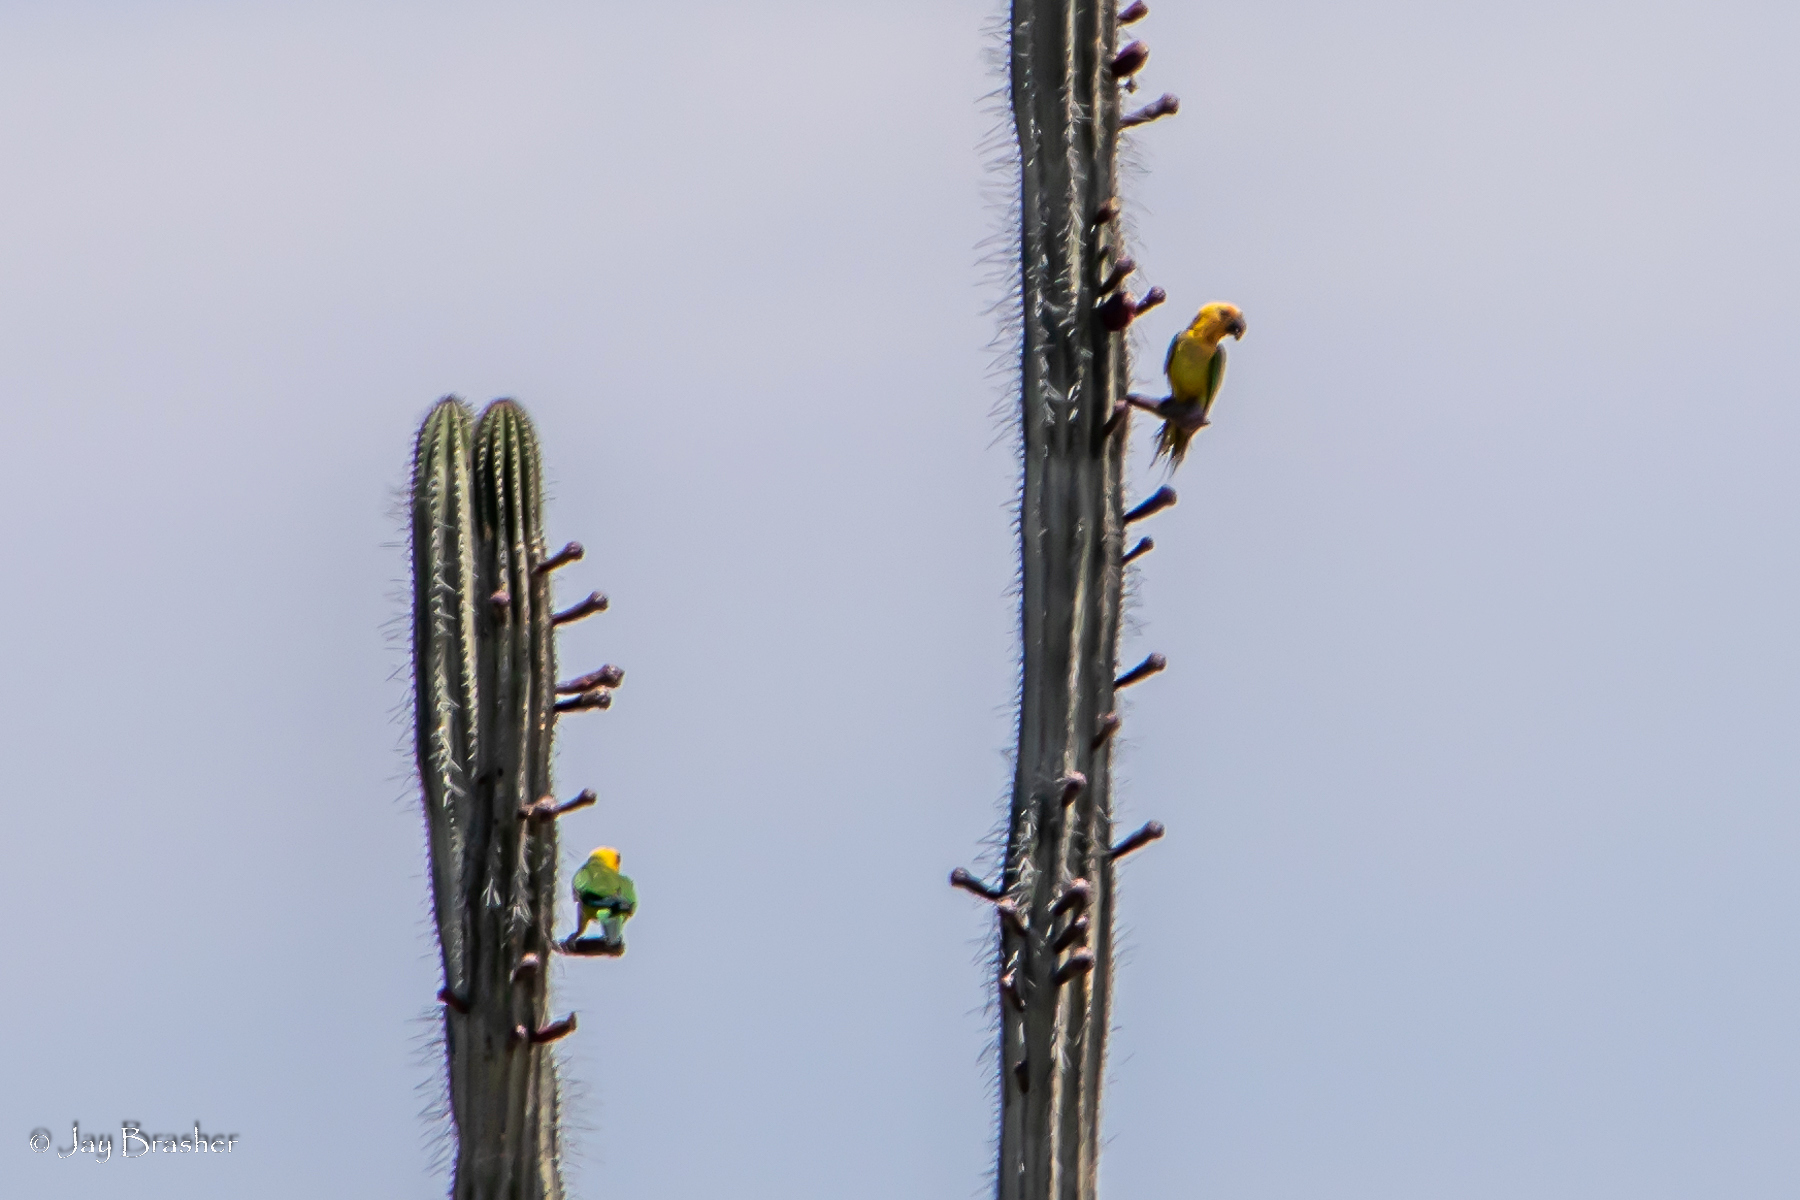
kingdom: Animalia
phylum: Chordata
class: Aves
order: Psittaciformes
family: Psittacidae
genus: Aratinga
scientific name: Aratinga pertinax
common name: Brown-throated parakeet
